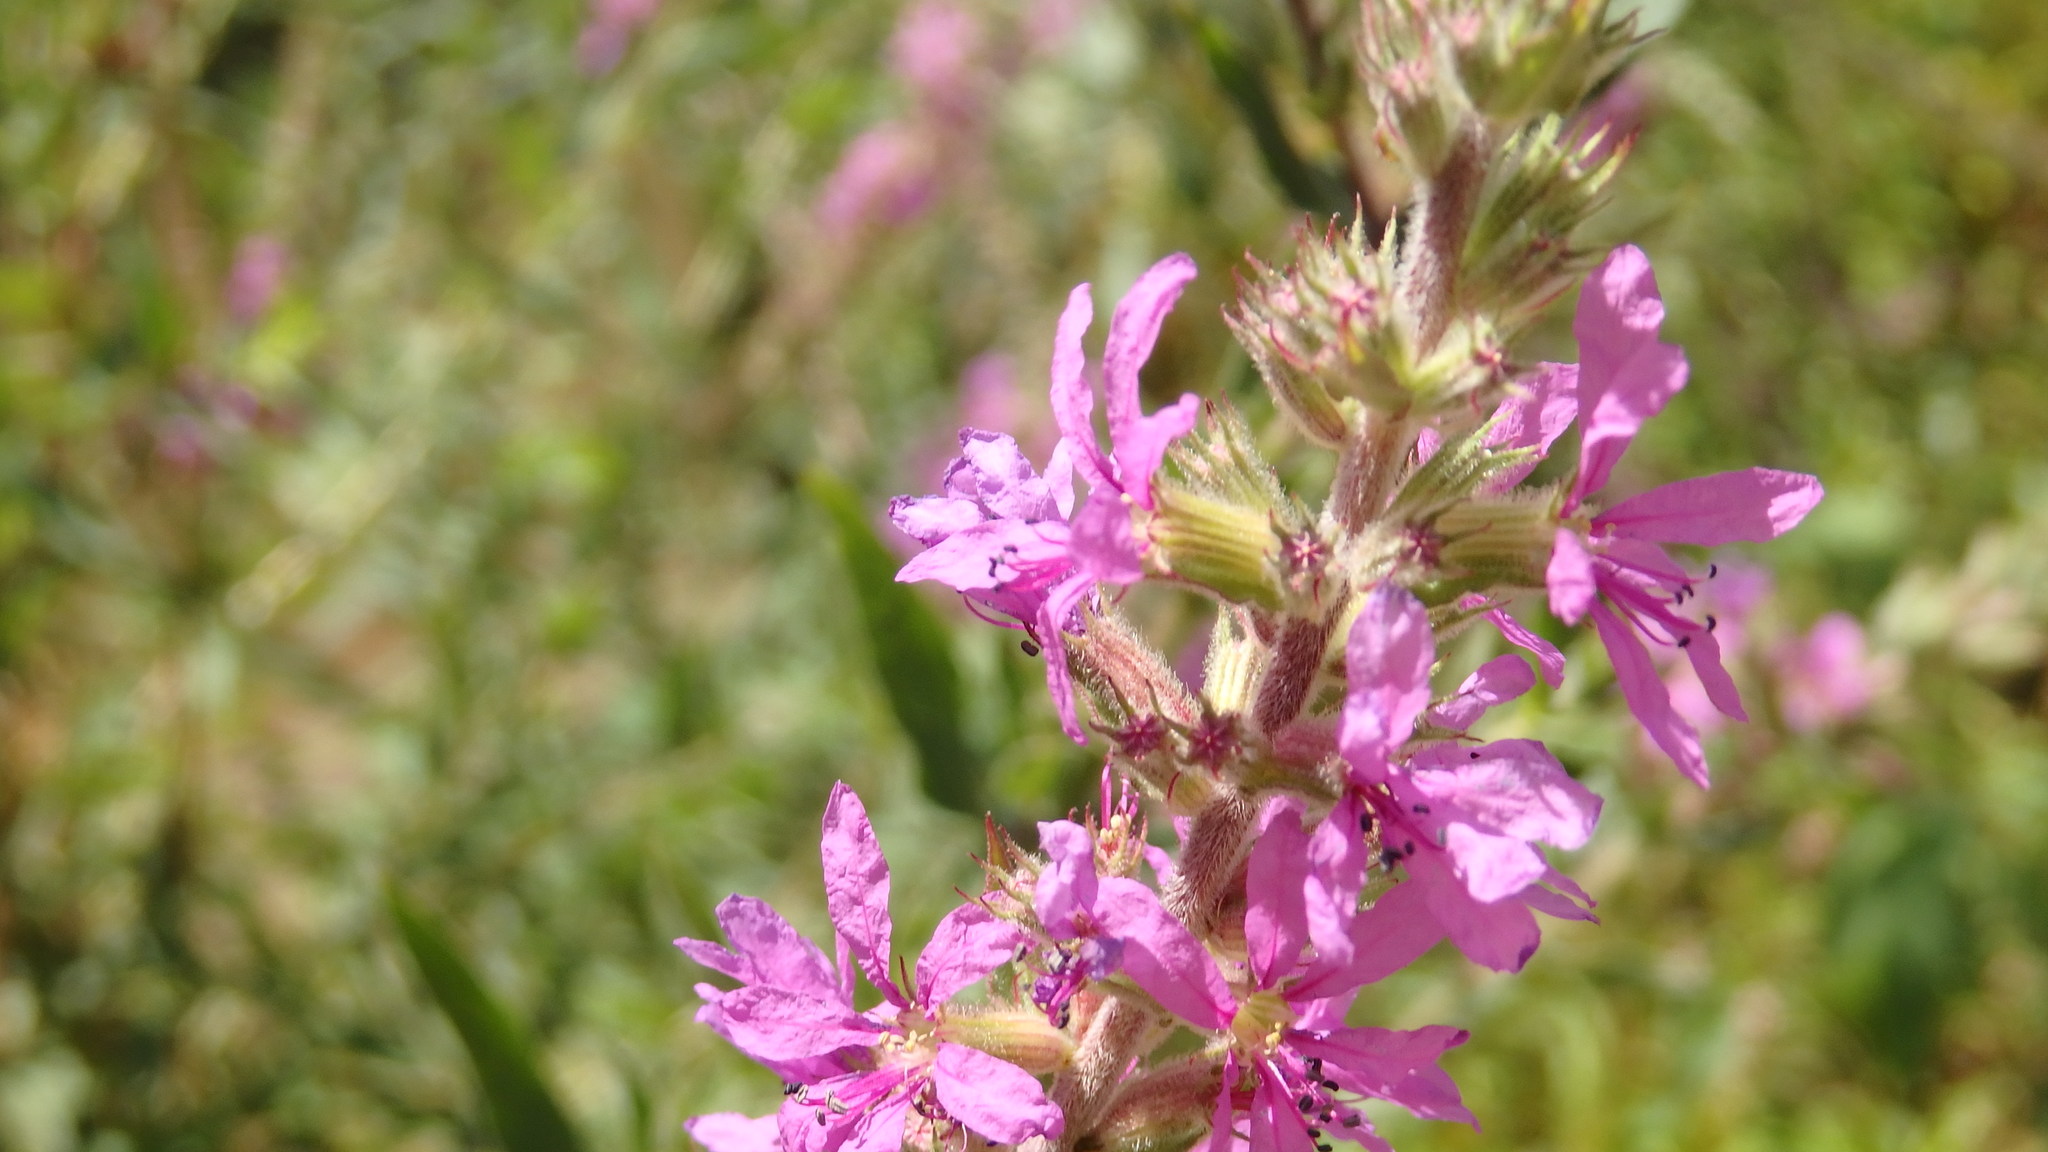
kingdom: Plantae
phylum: Tracheophyta
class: Magnoliopsida
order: Myrtales
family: Lythraceae
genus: Lythrum
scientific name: Lythrum salicaria
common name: Purple loosestrife
